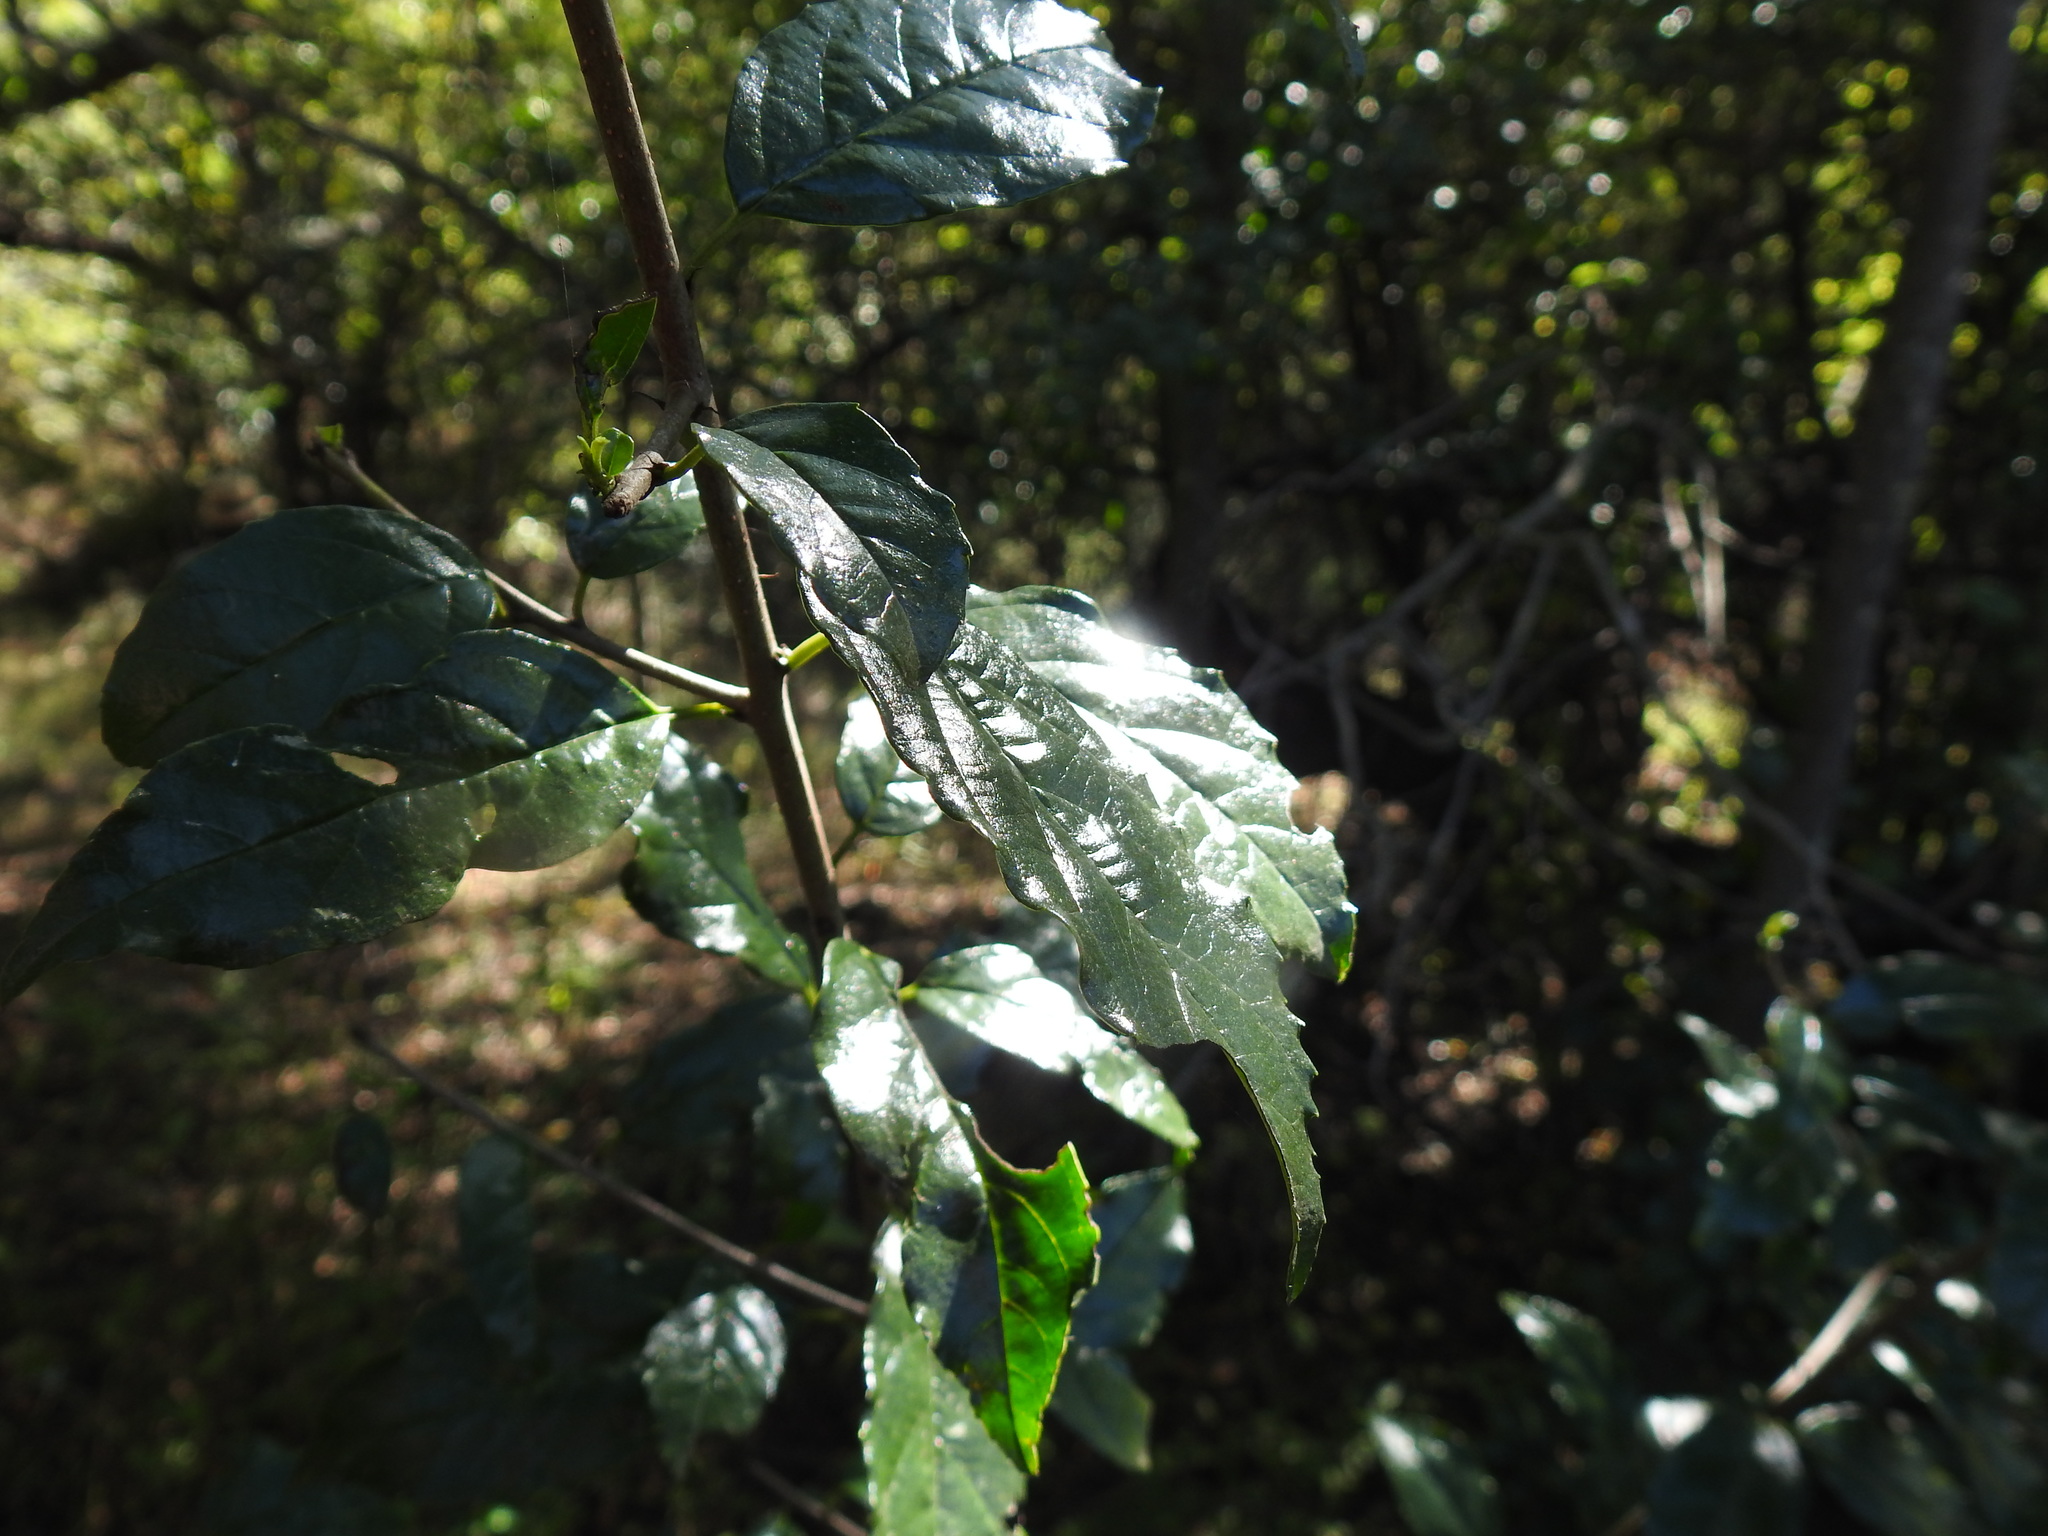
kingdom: Plantae
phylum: Tracheophyta
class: Magnoliopsida
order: Rosales
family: Rhamnaceae
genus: Rhamnus
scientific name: Rhamnus prinoides
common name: Dogwood
